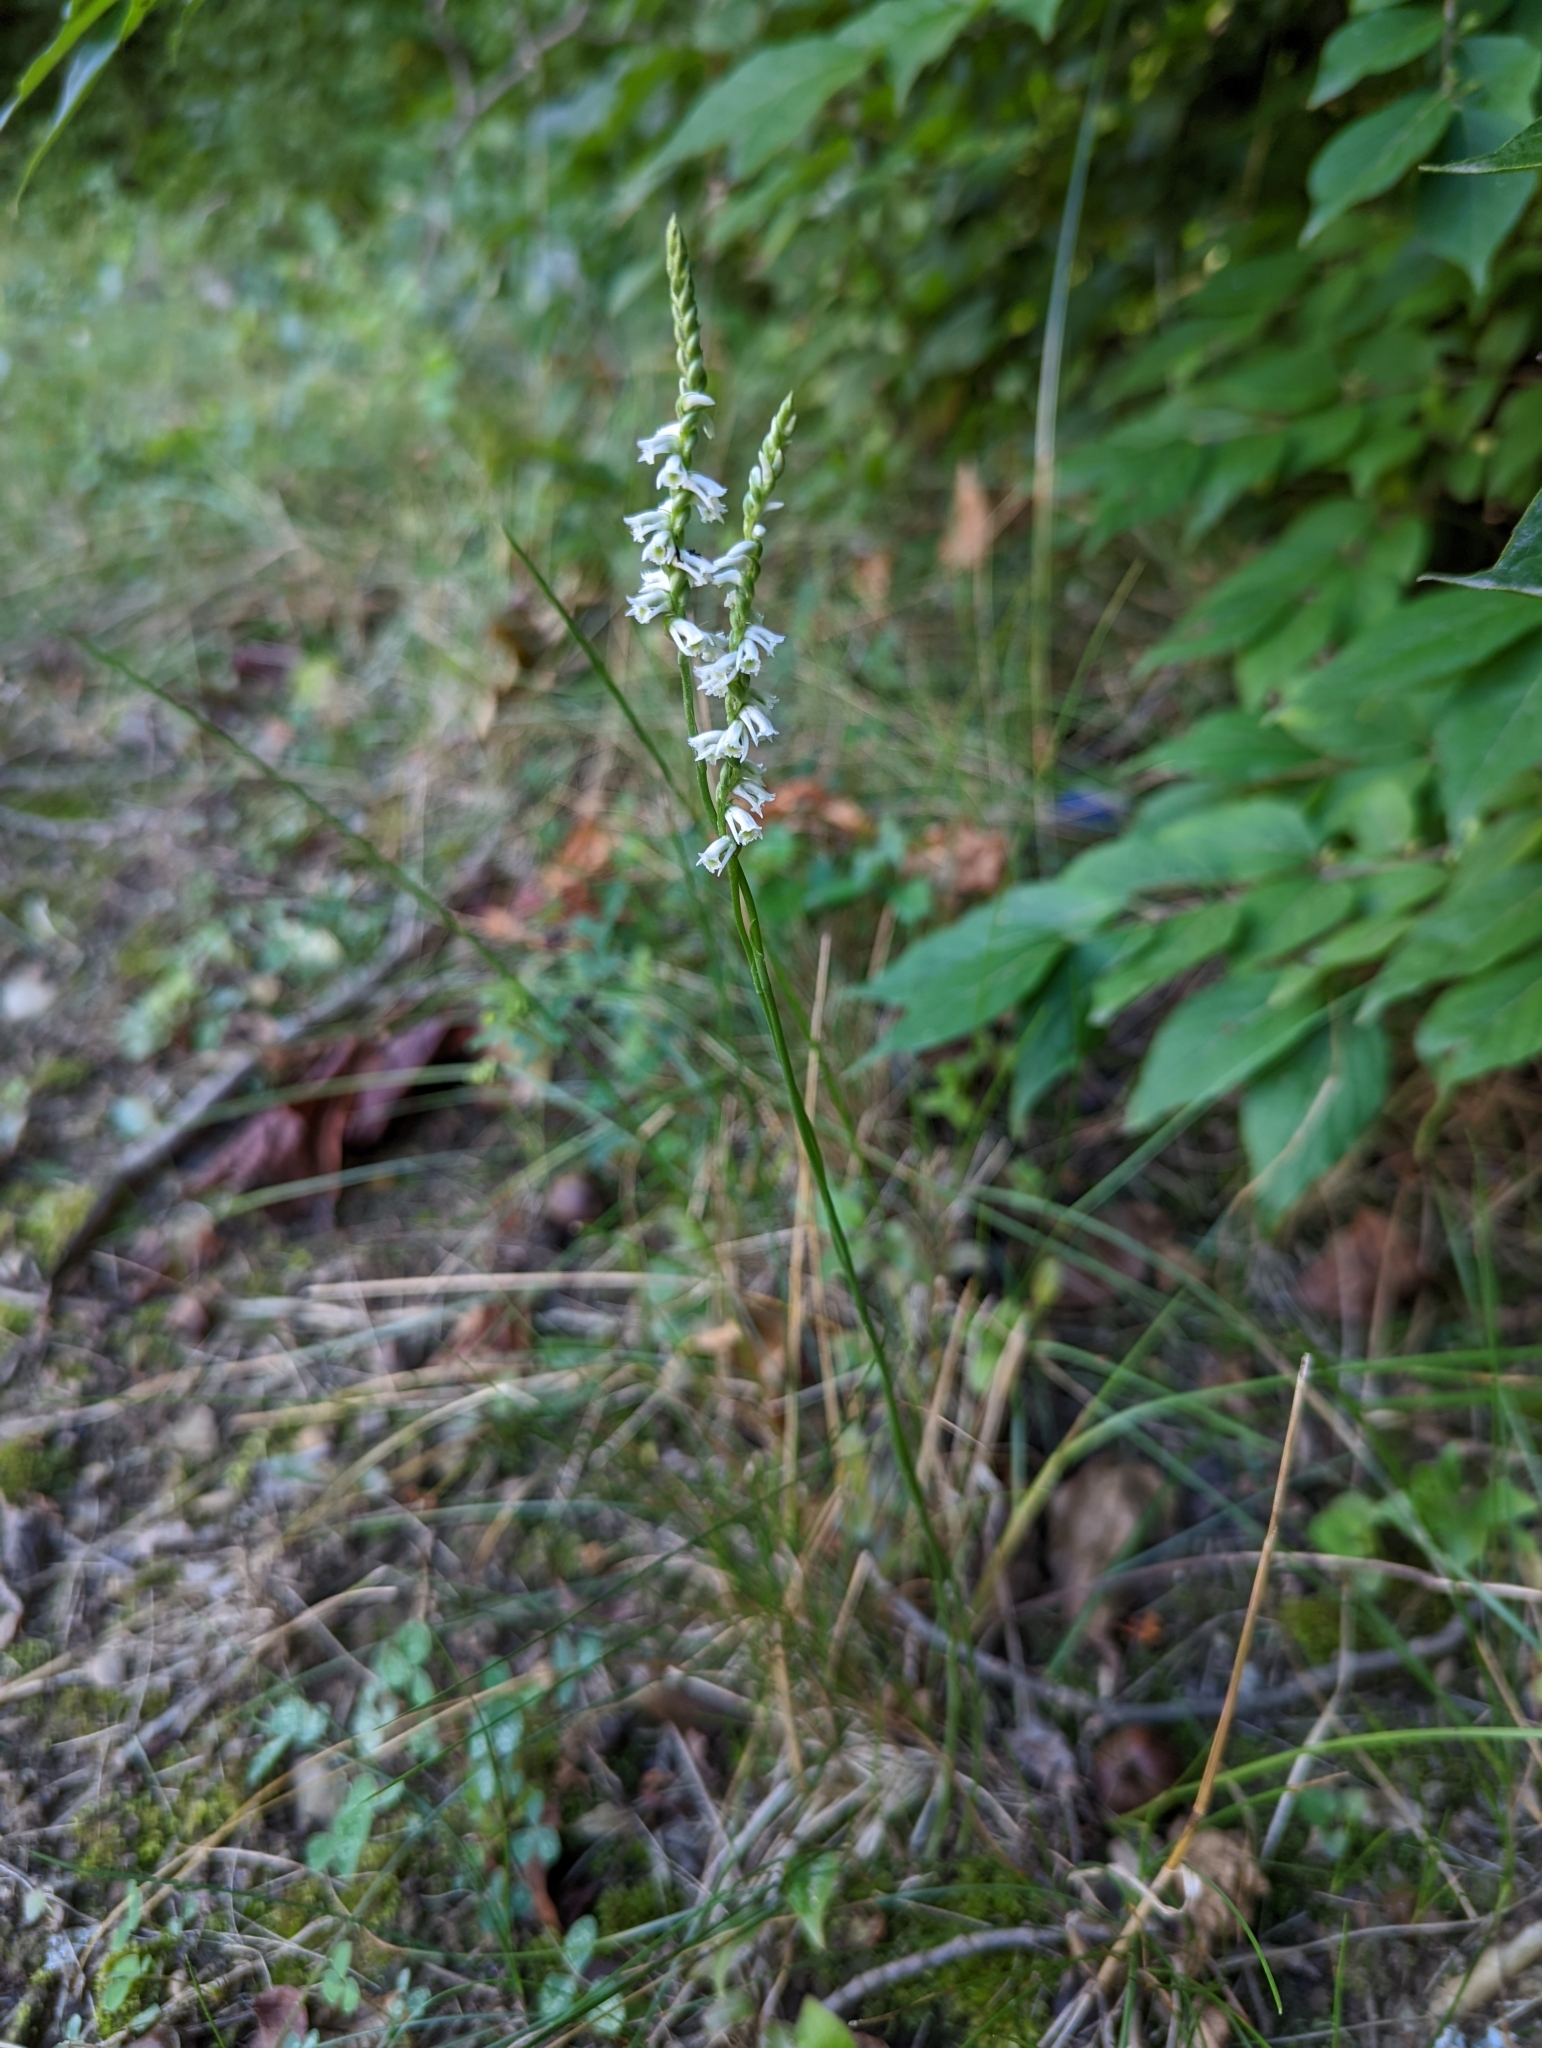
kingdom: Plantae
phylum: Tracheophyta
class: Liliopsida
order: Asparagales
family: Orchidaceae
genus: Spiranthes
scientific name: Spiranthes lacera
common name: Northern slender ladies'-tresses
